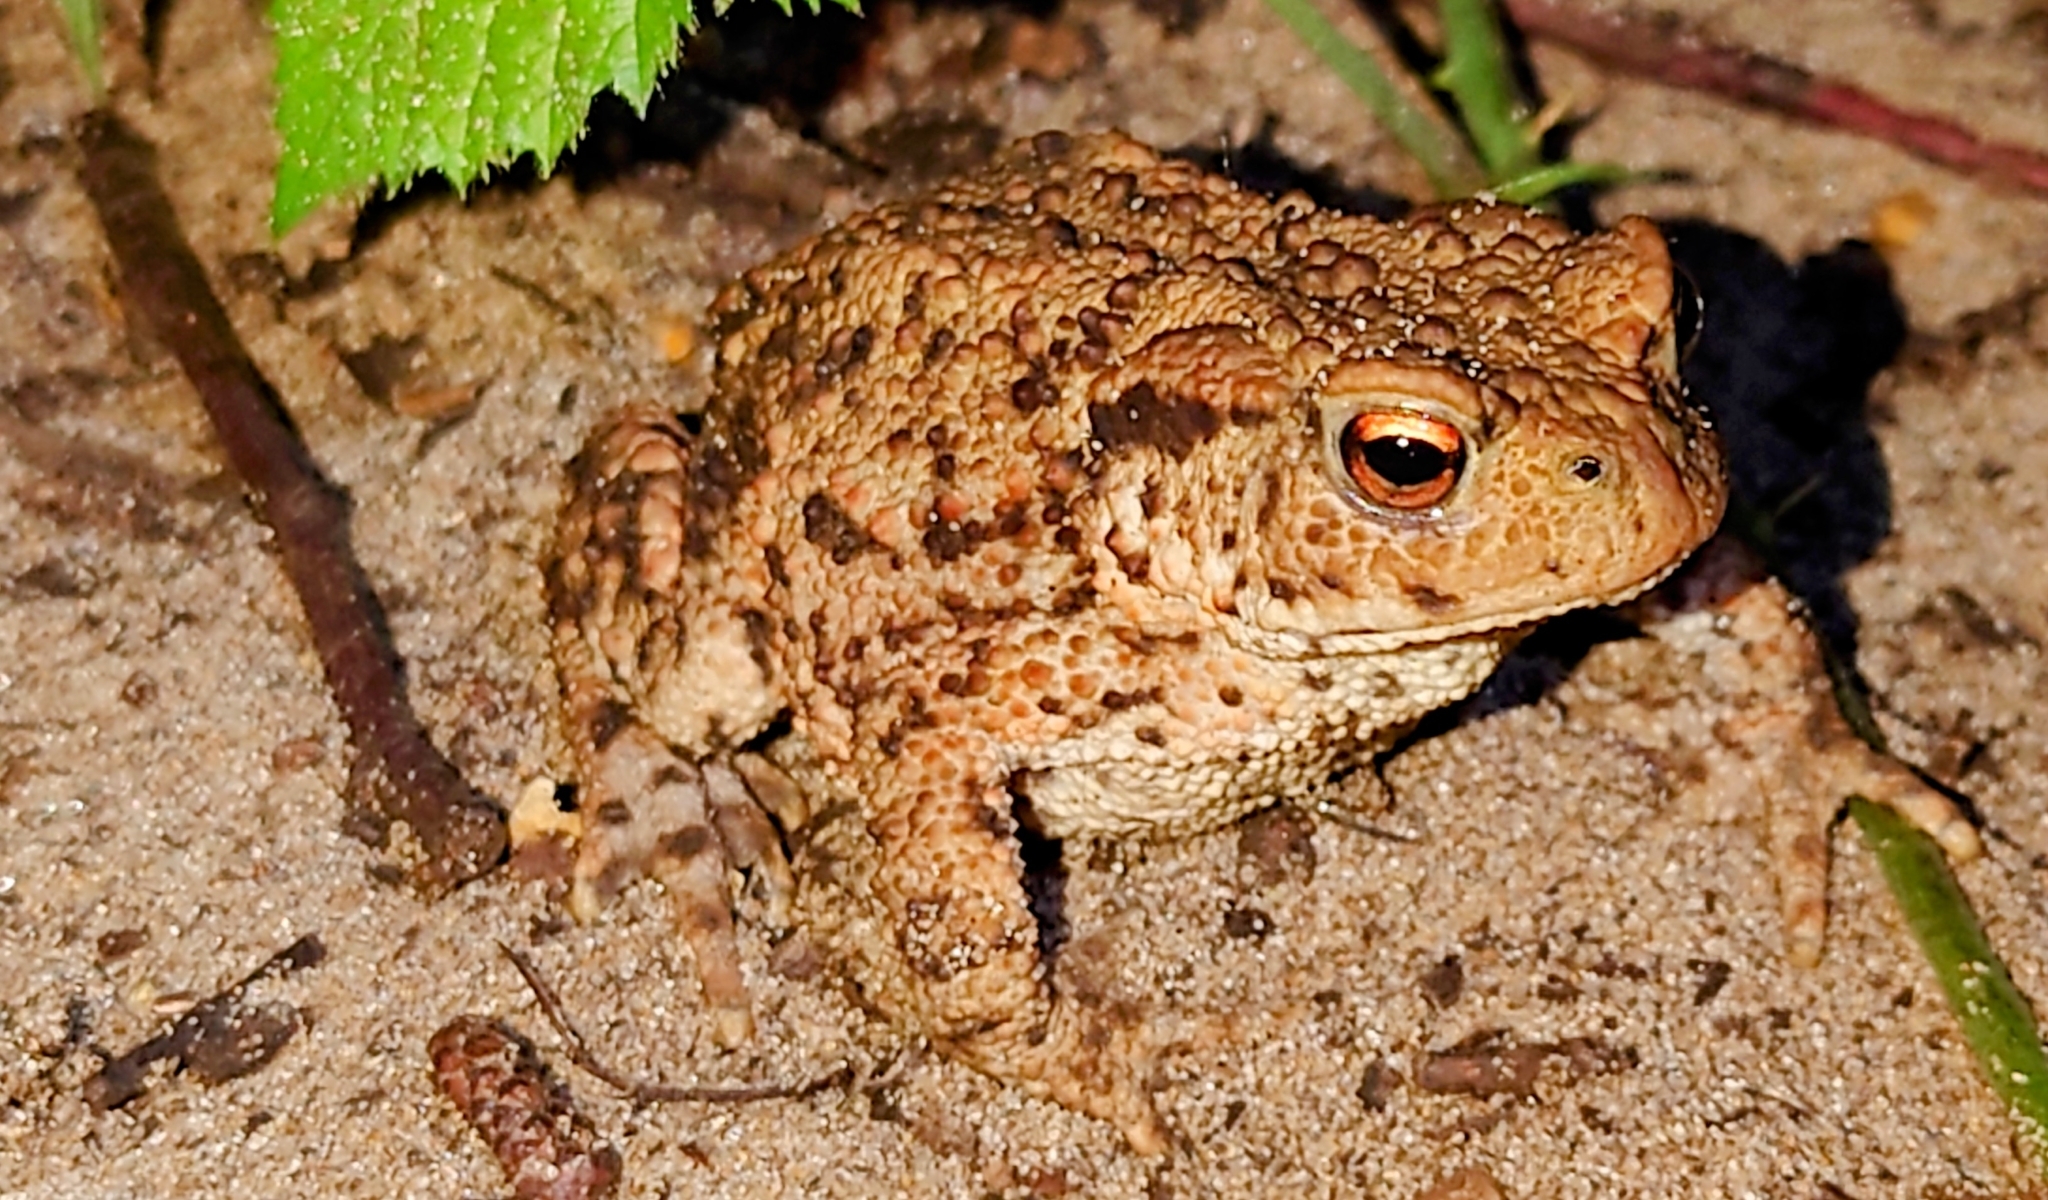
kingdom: Animalia
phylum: Chordata
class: Amphibia
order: Anura
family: Bufonidae
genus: Bufo
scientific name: Bufo bufo
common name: Common toad
